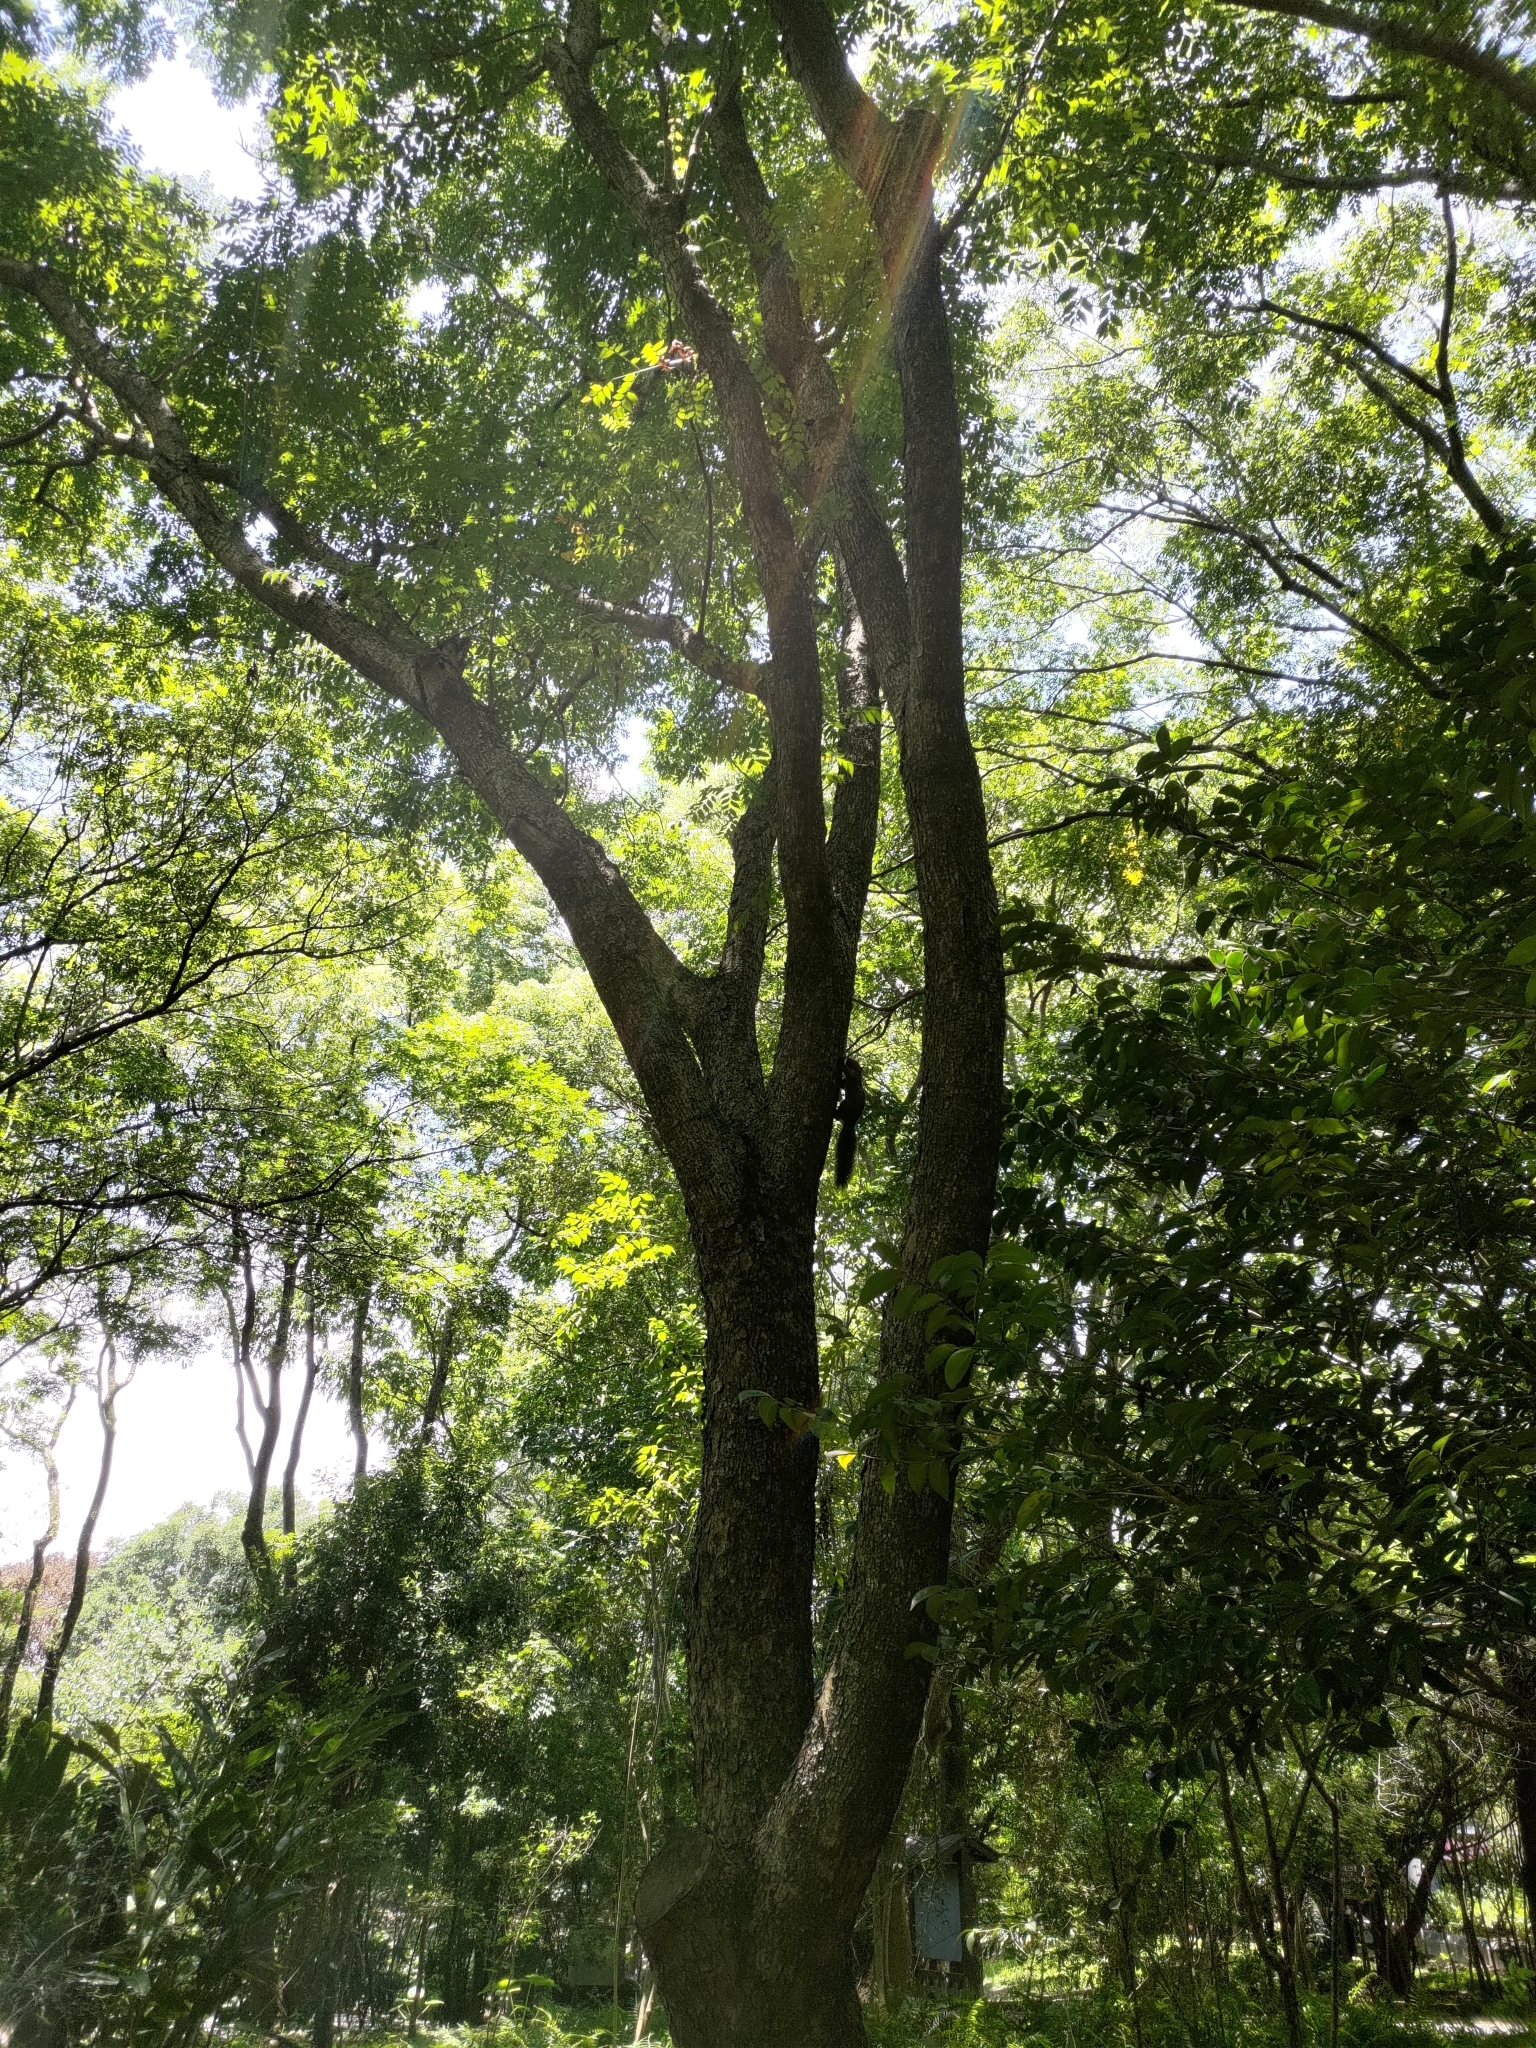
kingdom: Animalia
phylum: Chordata
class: Mammalia
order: Rodentia
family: Sciuridae
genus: Callosciurus
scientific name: Callosciurus erythraeus
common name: Pallas's squirrel
